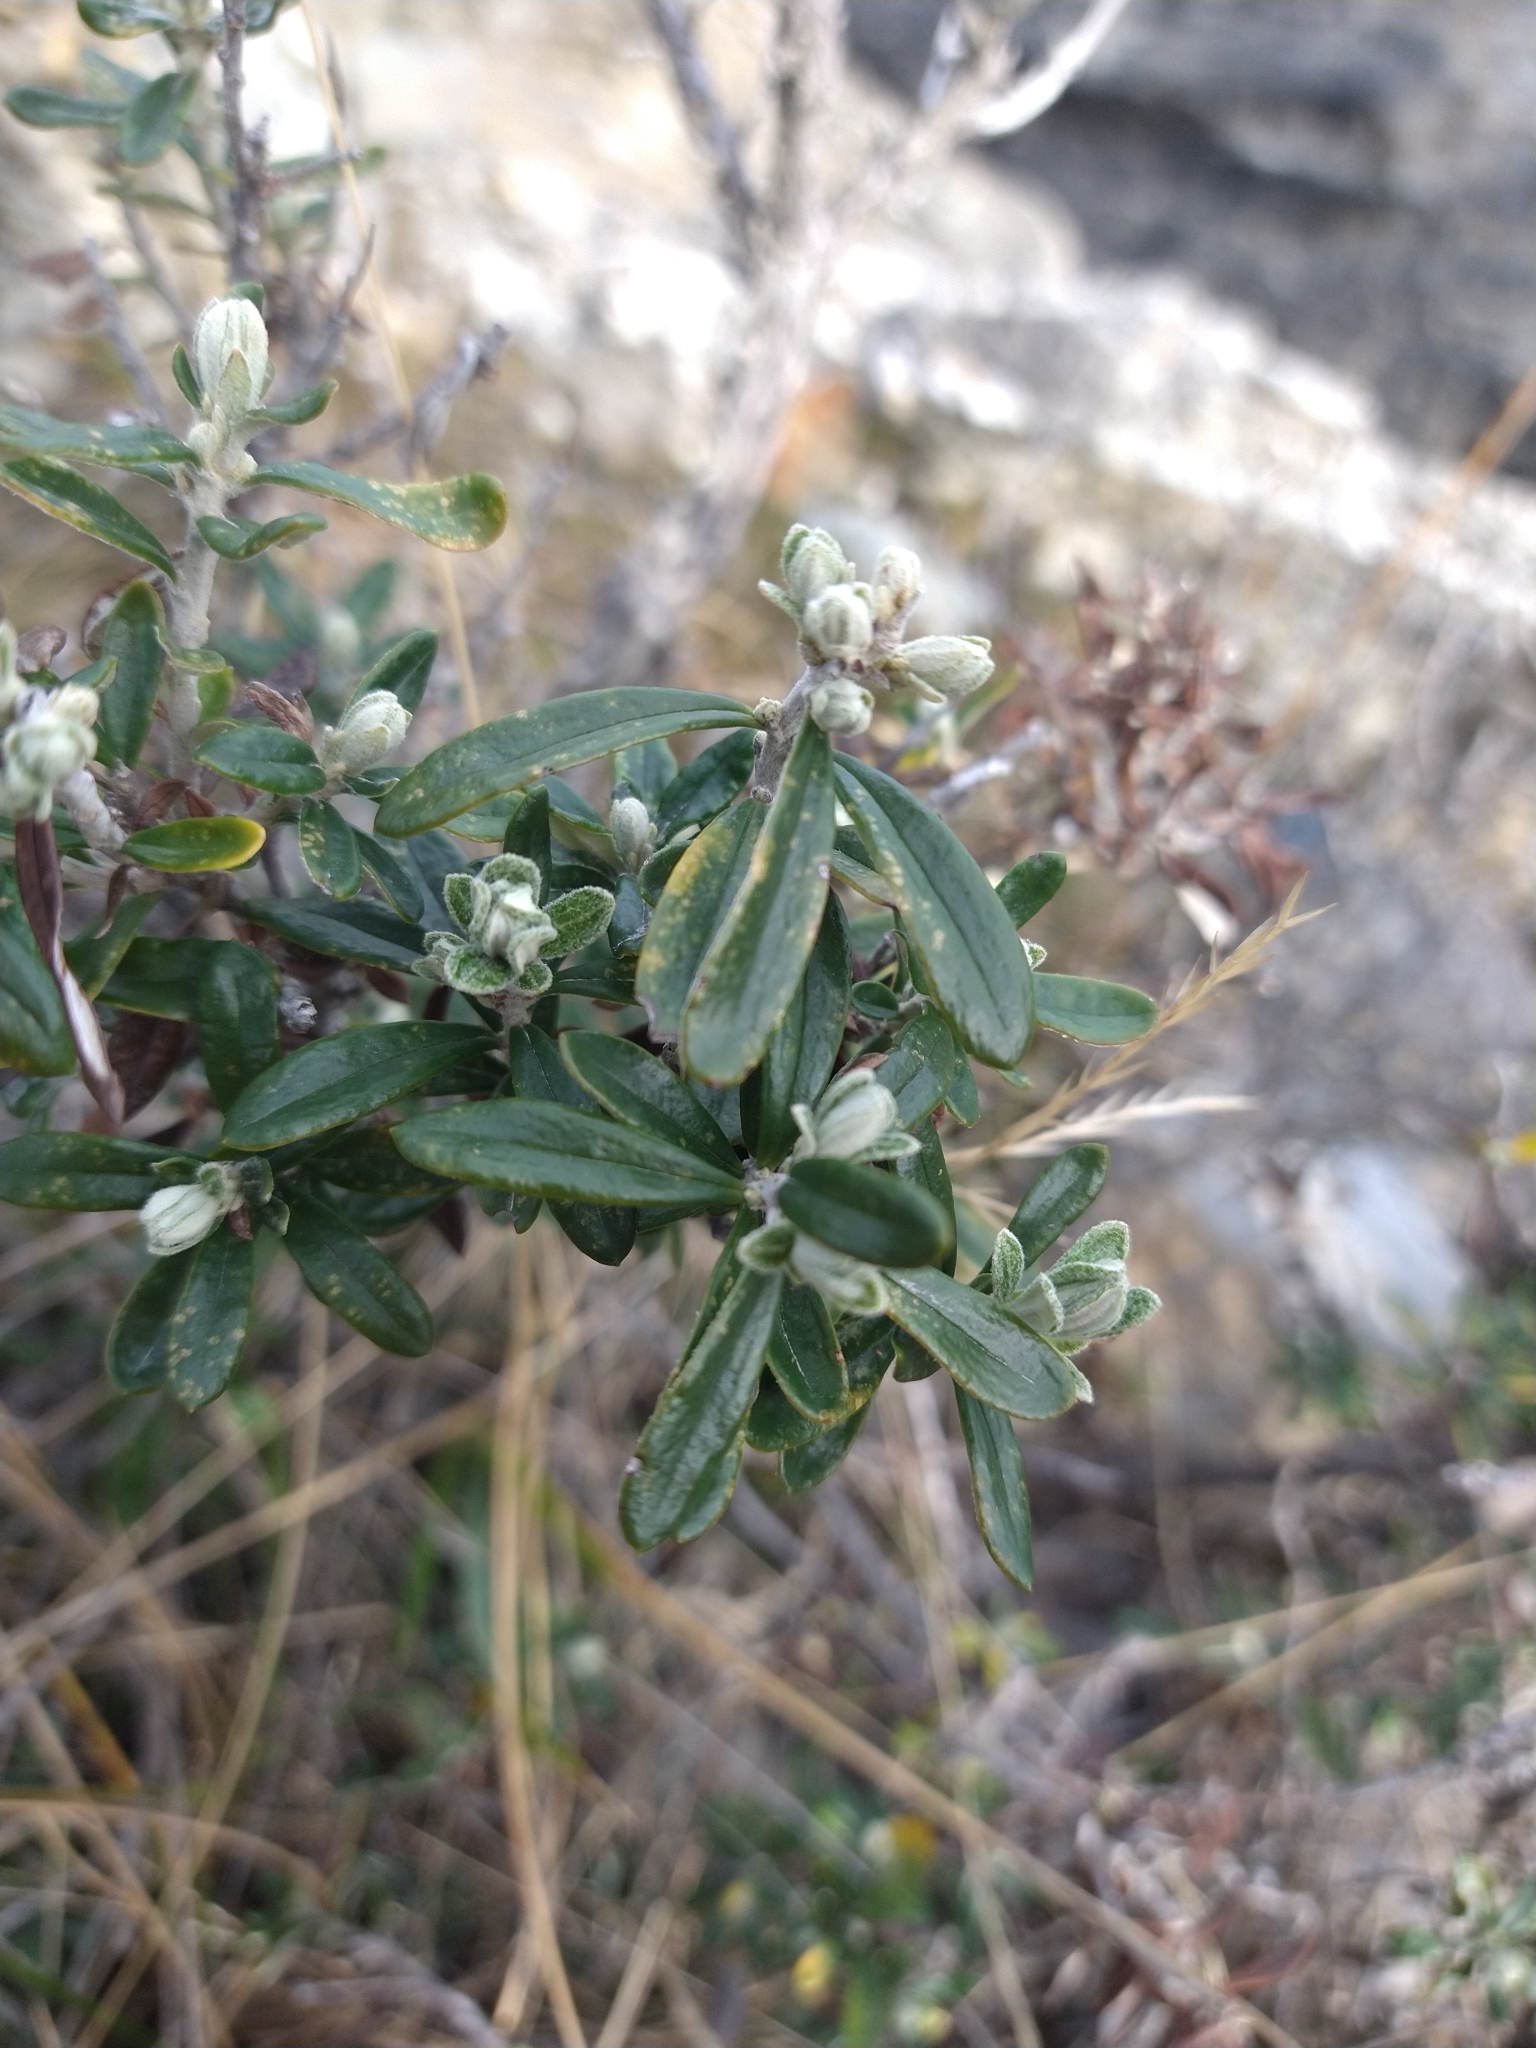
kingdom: Plantae
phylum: Tracheophyta
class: Magnoliopsida
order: Asterales
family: Asteraceae
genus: Chiliotrichum
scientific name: Chiliotrichum diffusum
